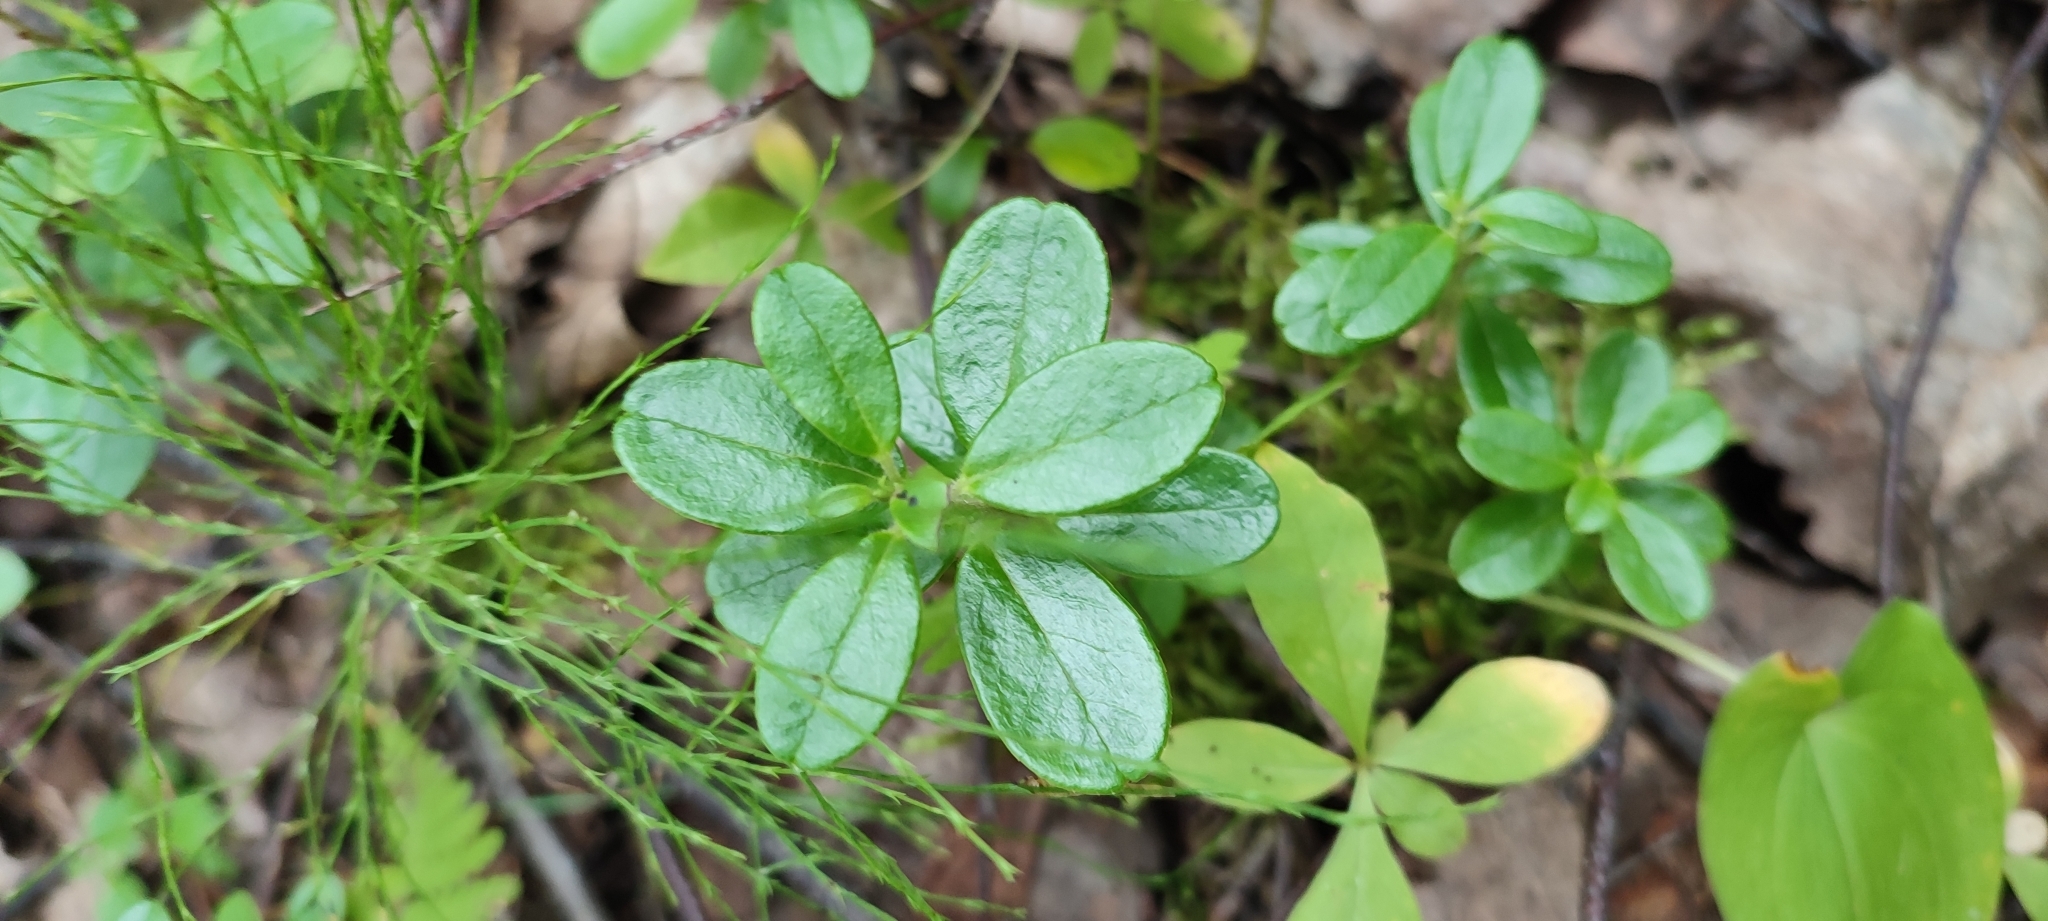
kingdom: Plantae
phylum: Tracheophyta
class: Magnoliopsida
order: Ericales
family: Ericaceae
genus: Vaccinium
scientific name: Vaccinium vitis-idaea
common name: Cowberry
